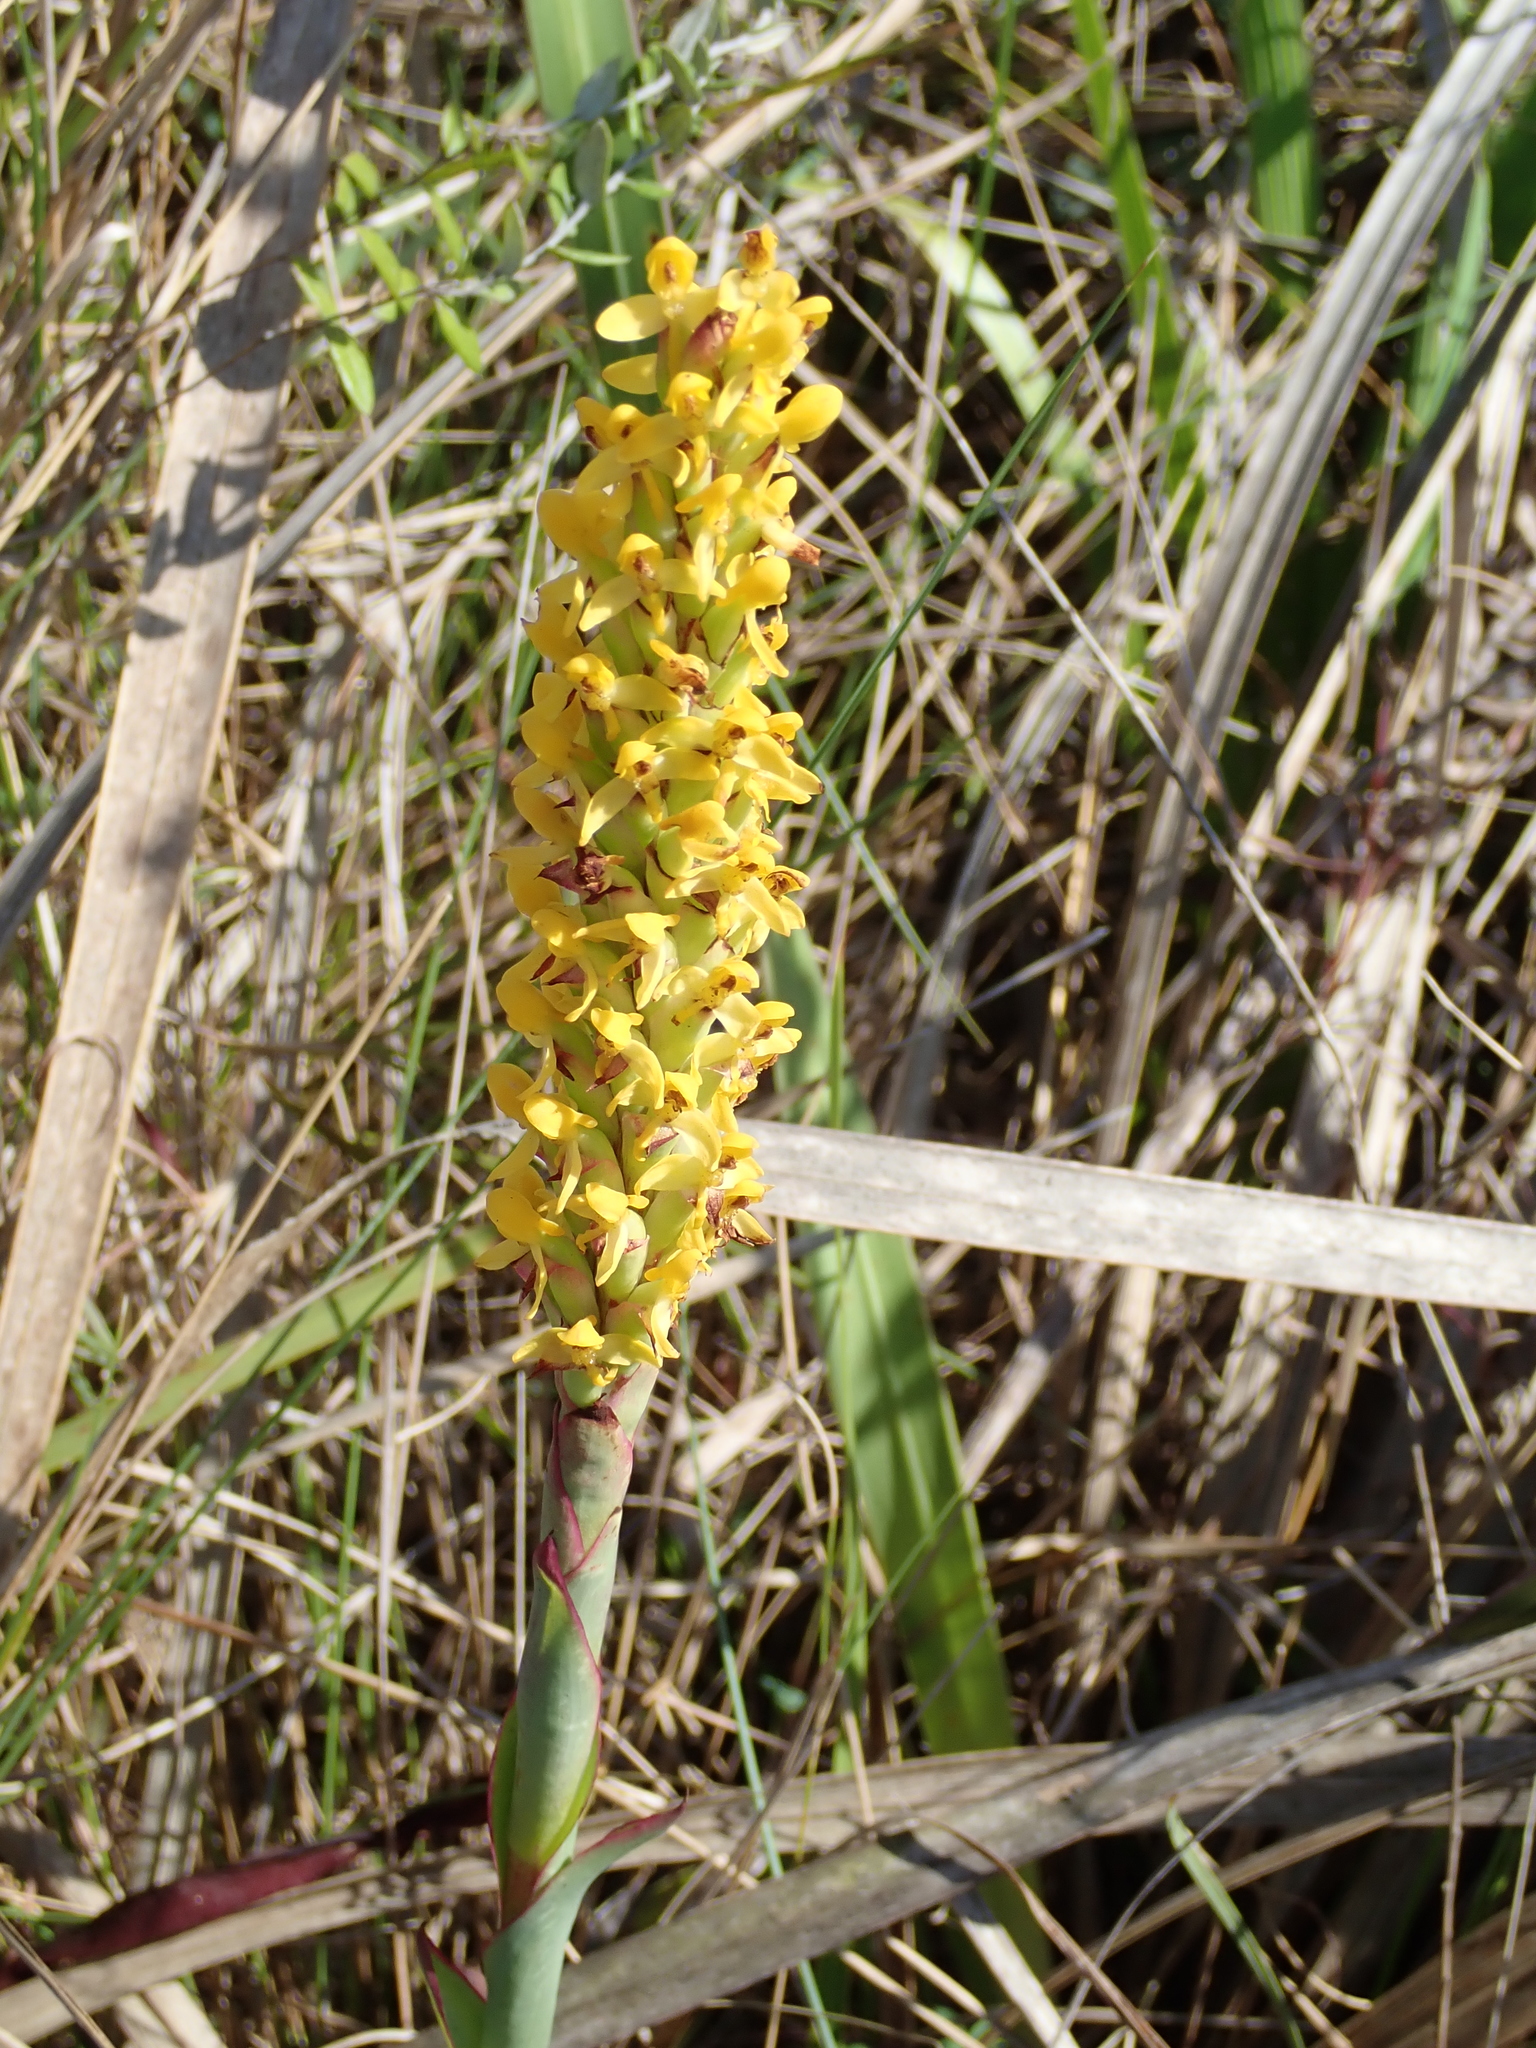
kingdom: Plantae
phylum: Tracheophyta
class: Liliopsida
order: Asparagales
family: Orchidaceae
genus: Disa
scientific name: Disa woodii
